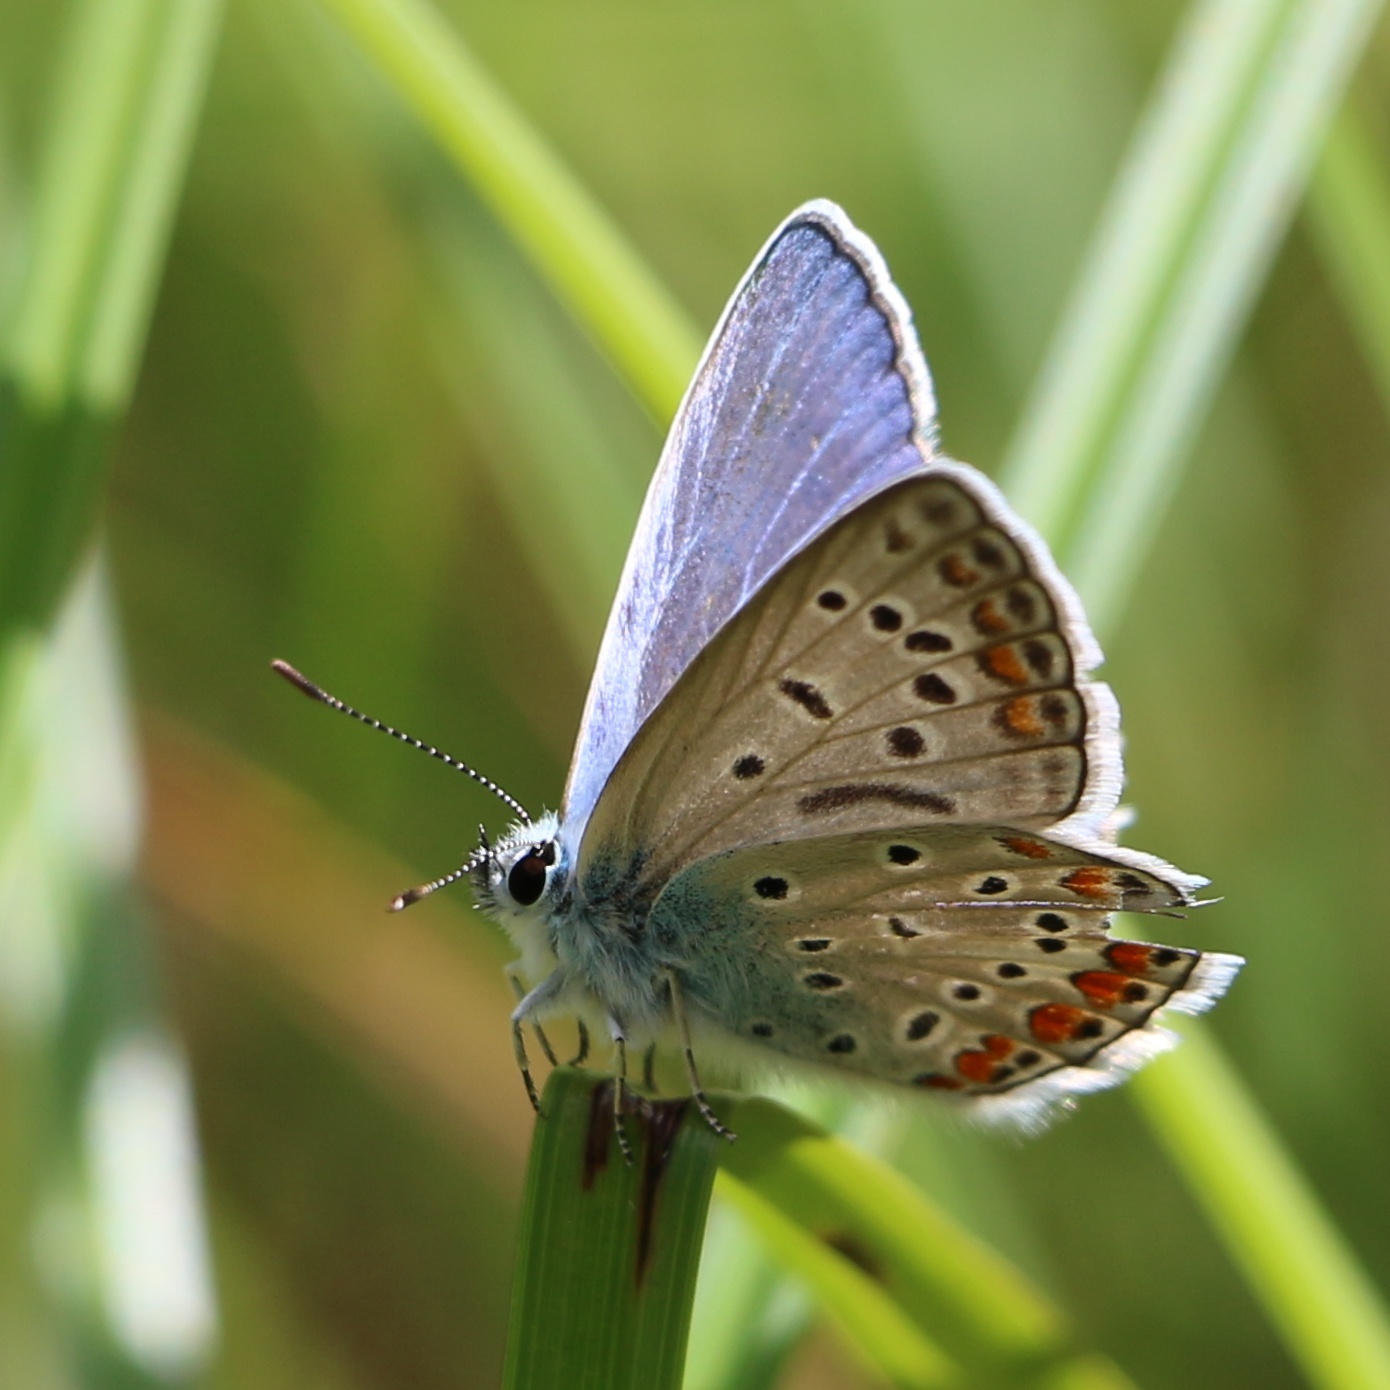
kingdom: Animalia
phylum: Arthropoda
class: Insecta
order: Lepidoptera
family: Lycaenidae
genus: Polyommatus
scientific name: Polyommatus icarus
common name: Common blue
